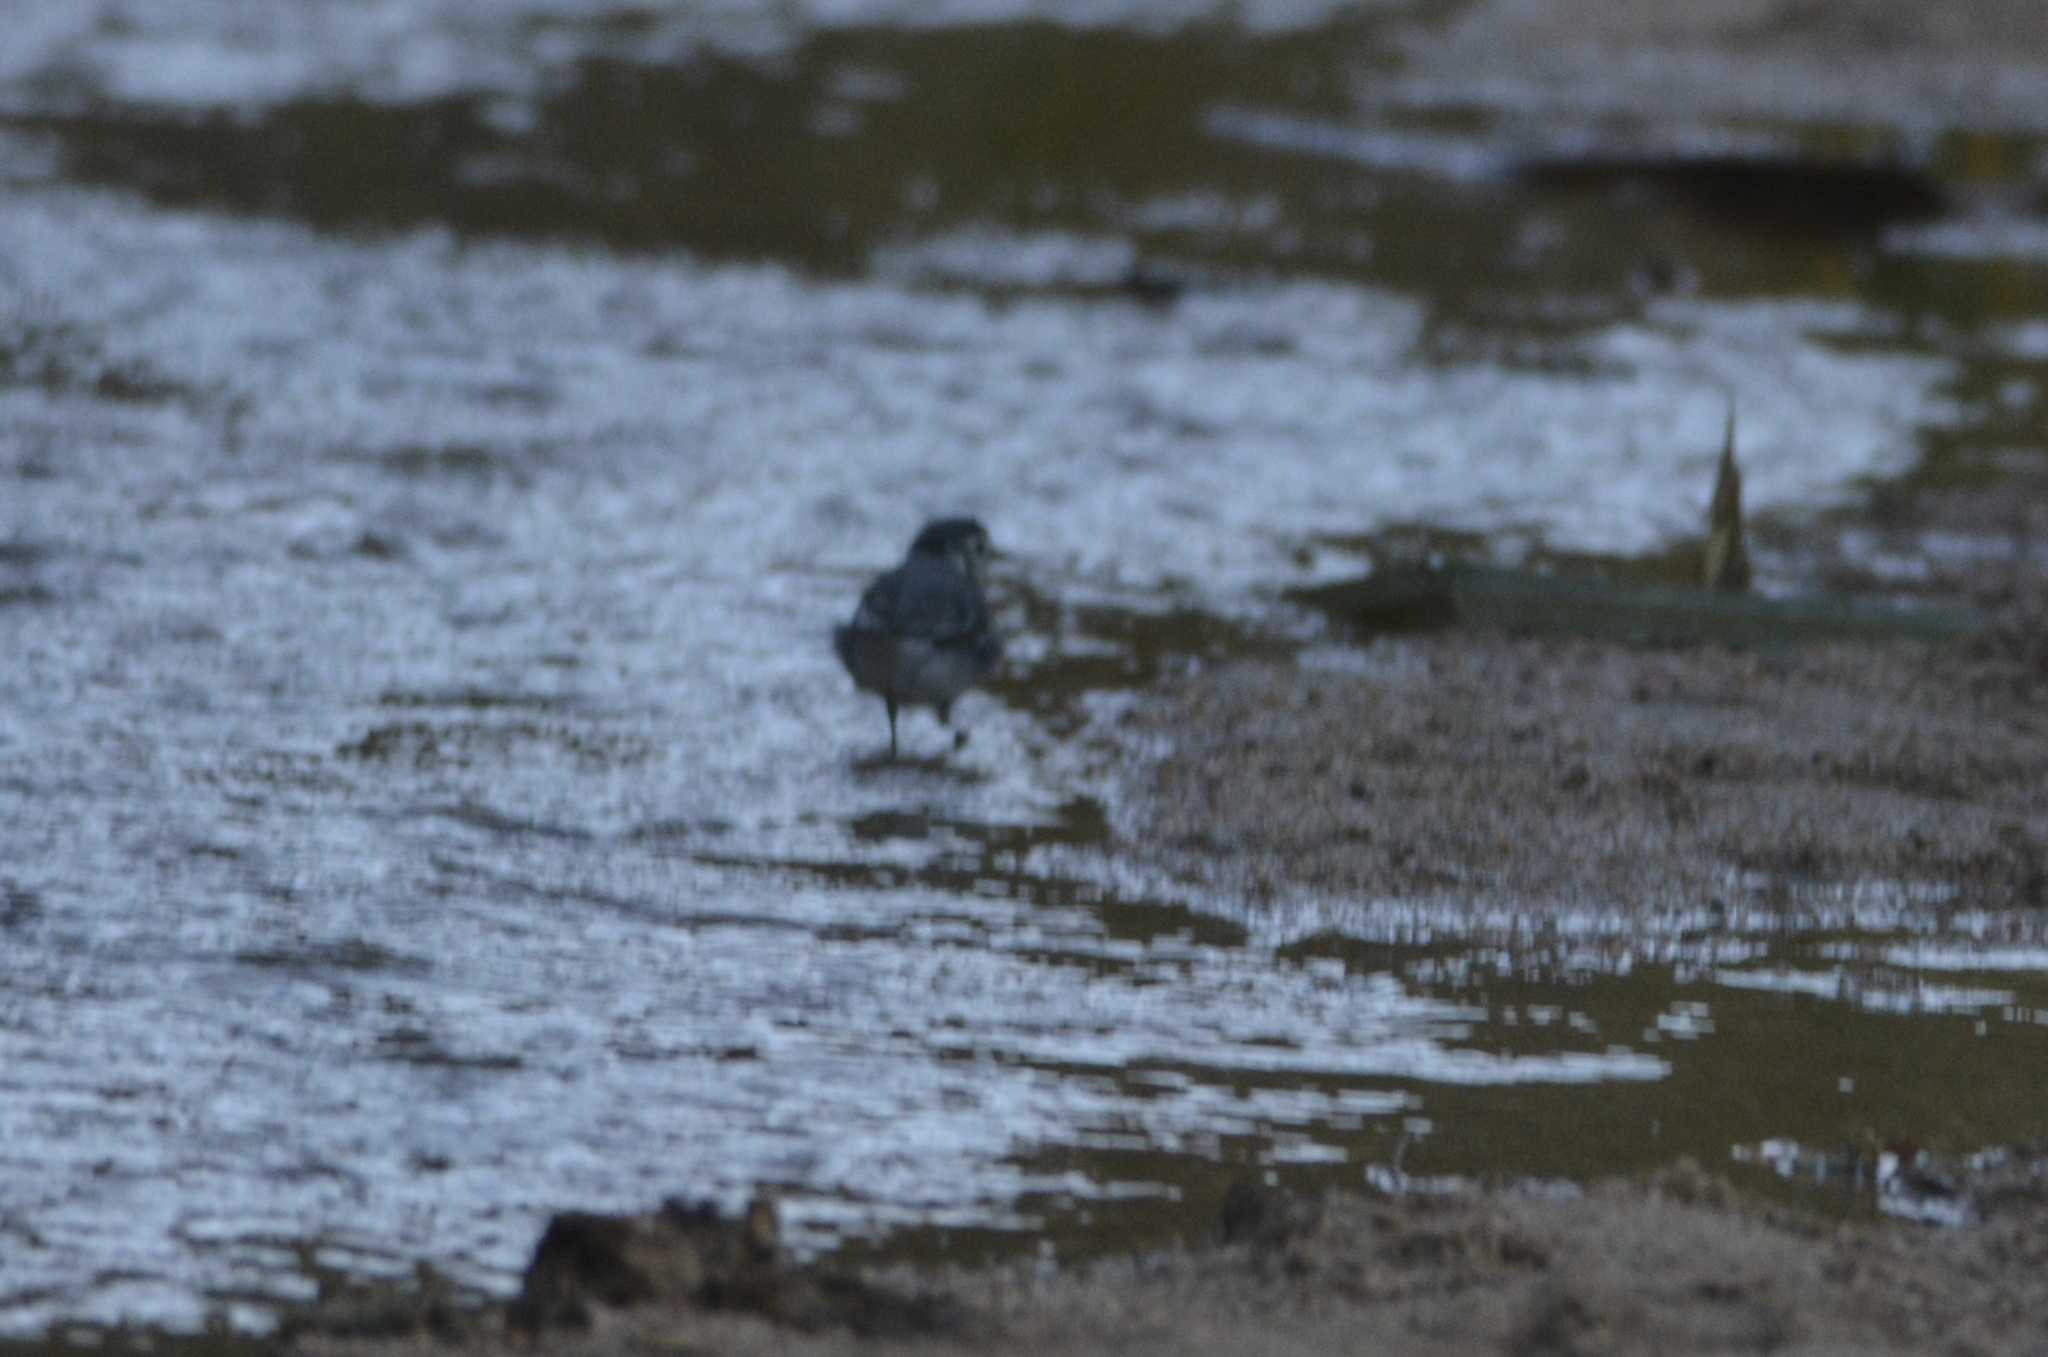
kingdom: Animalia
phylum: Chordata
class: Aves
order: Passeriformes
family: Motacillidae
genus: Motacilla
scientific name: Motacilla alba
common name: White wagtail
